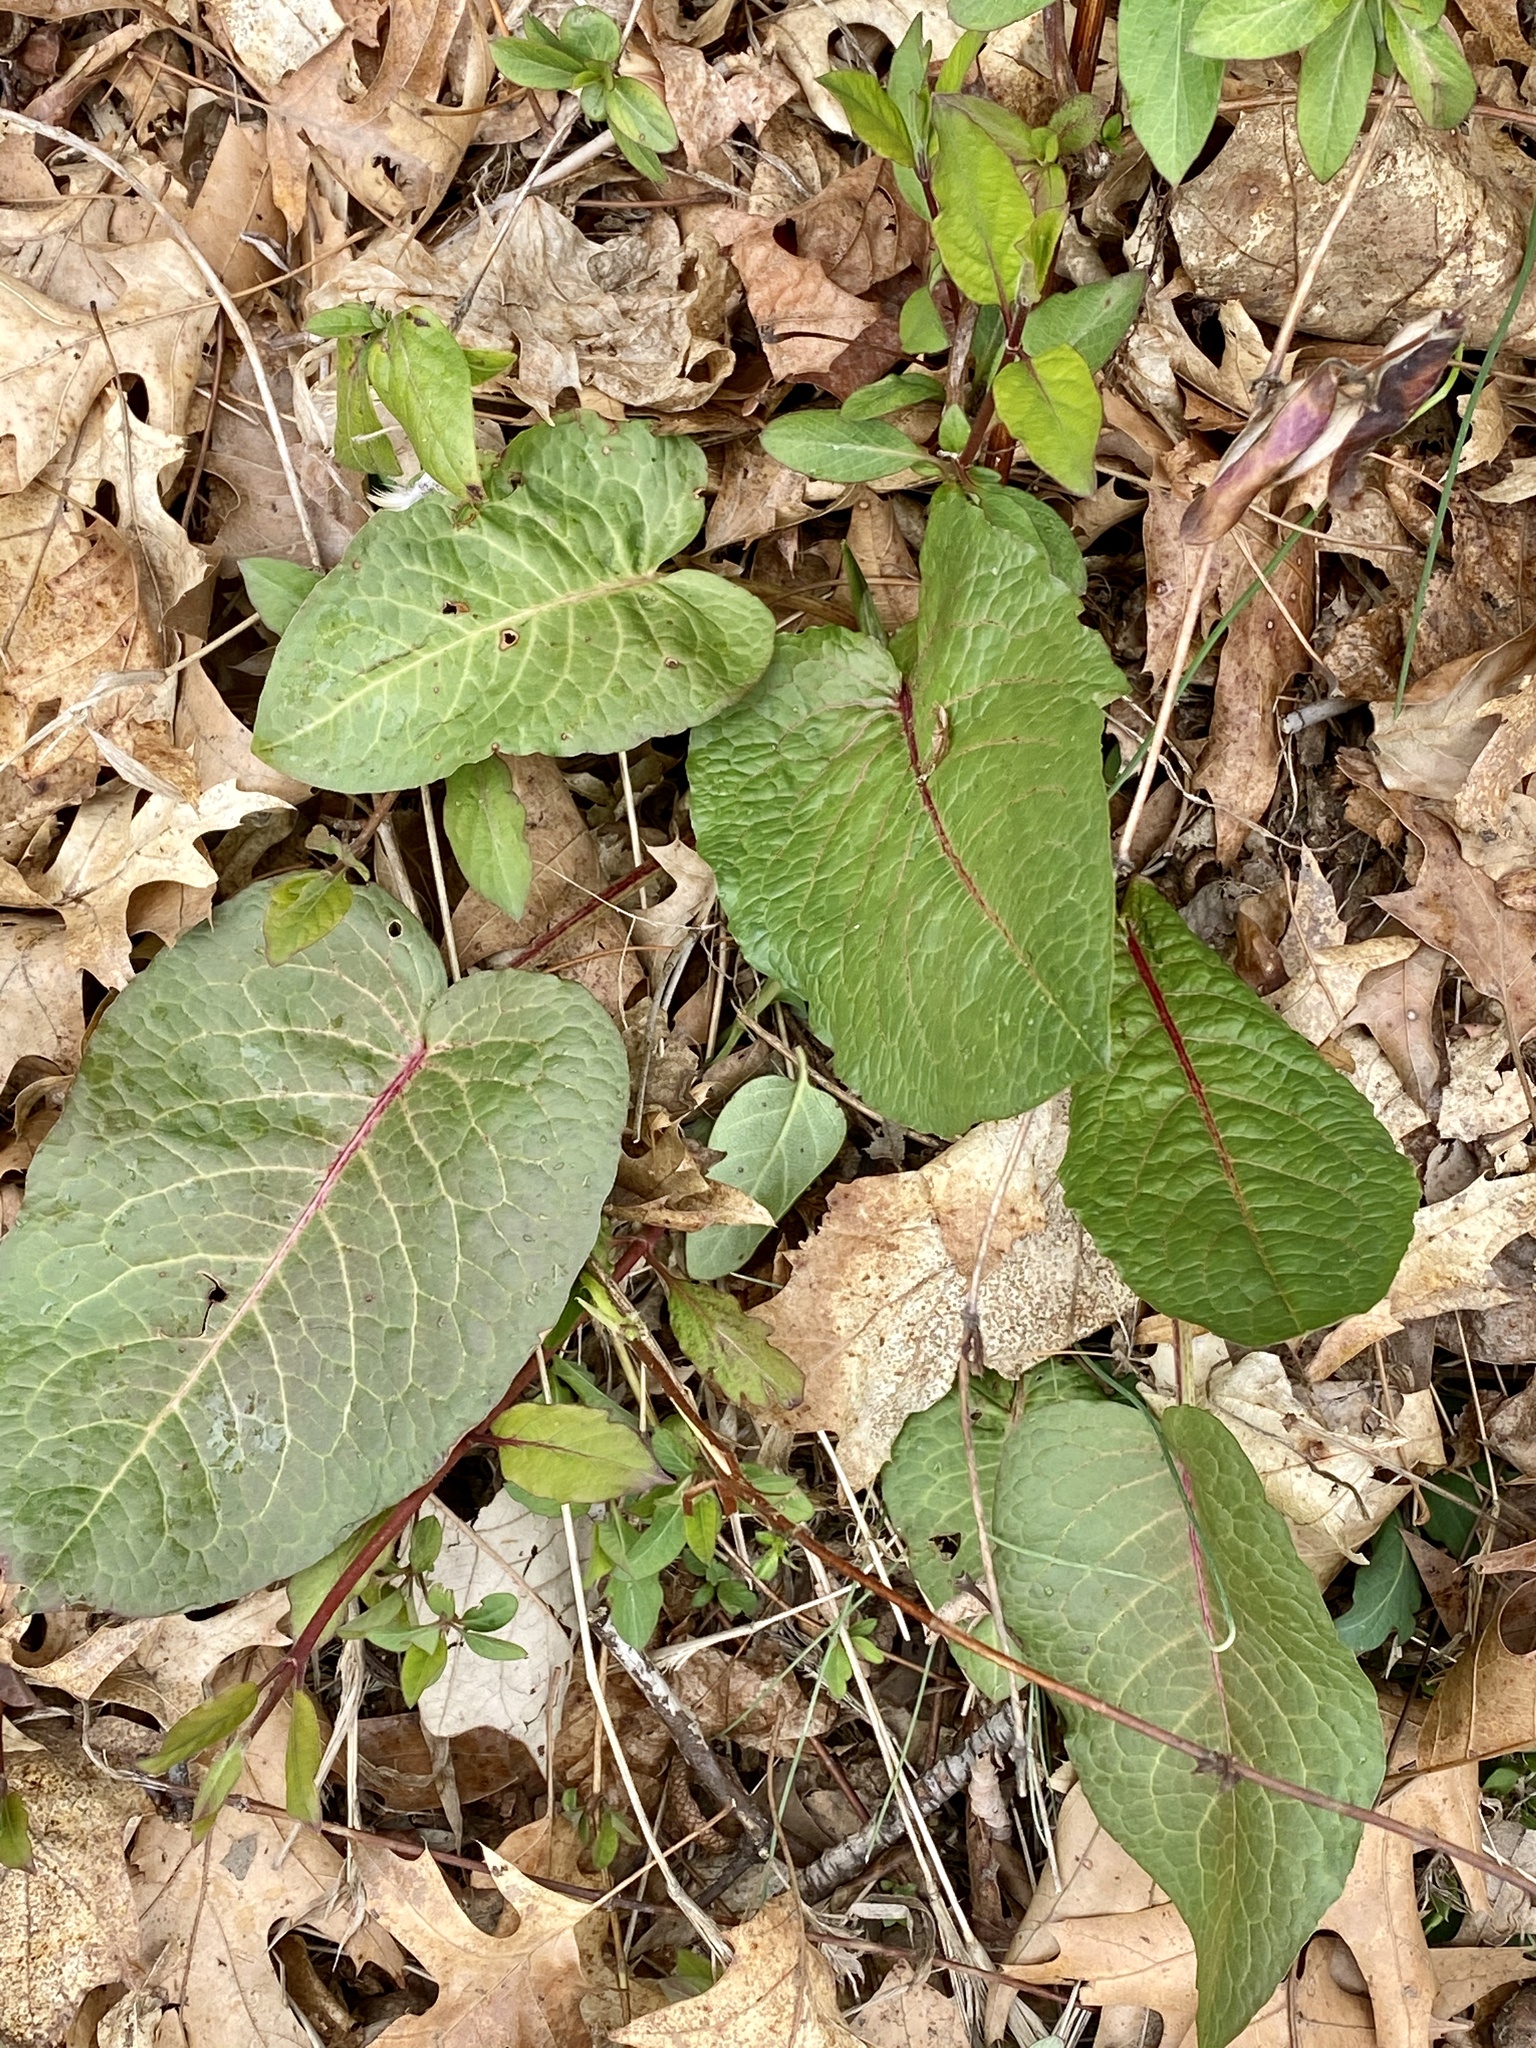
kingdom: Plantae
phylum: Tracheophyta
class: Magnoliopsida
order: Caryophyllales
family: Polygonaceae
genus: Rumex
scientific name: Rumex obtusifolius
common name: Bitter dock
